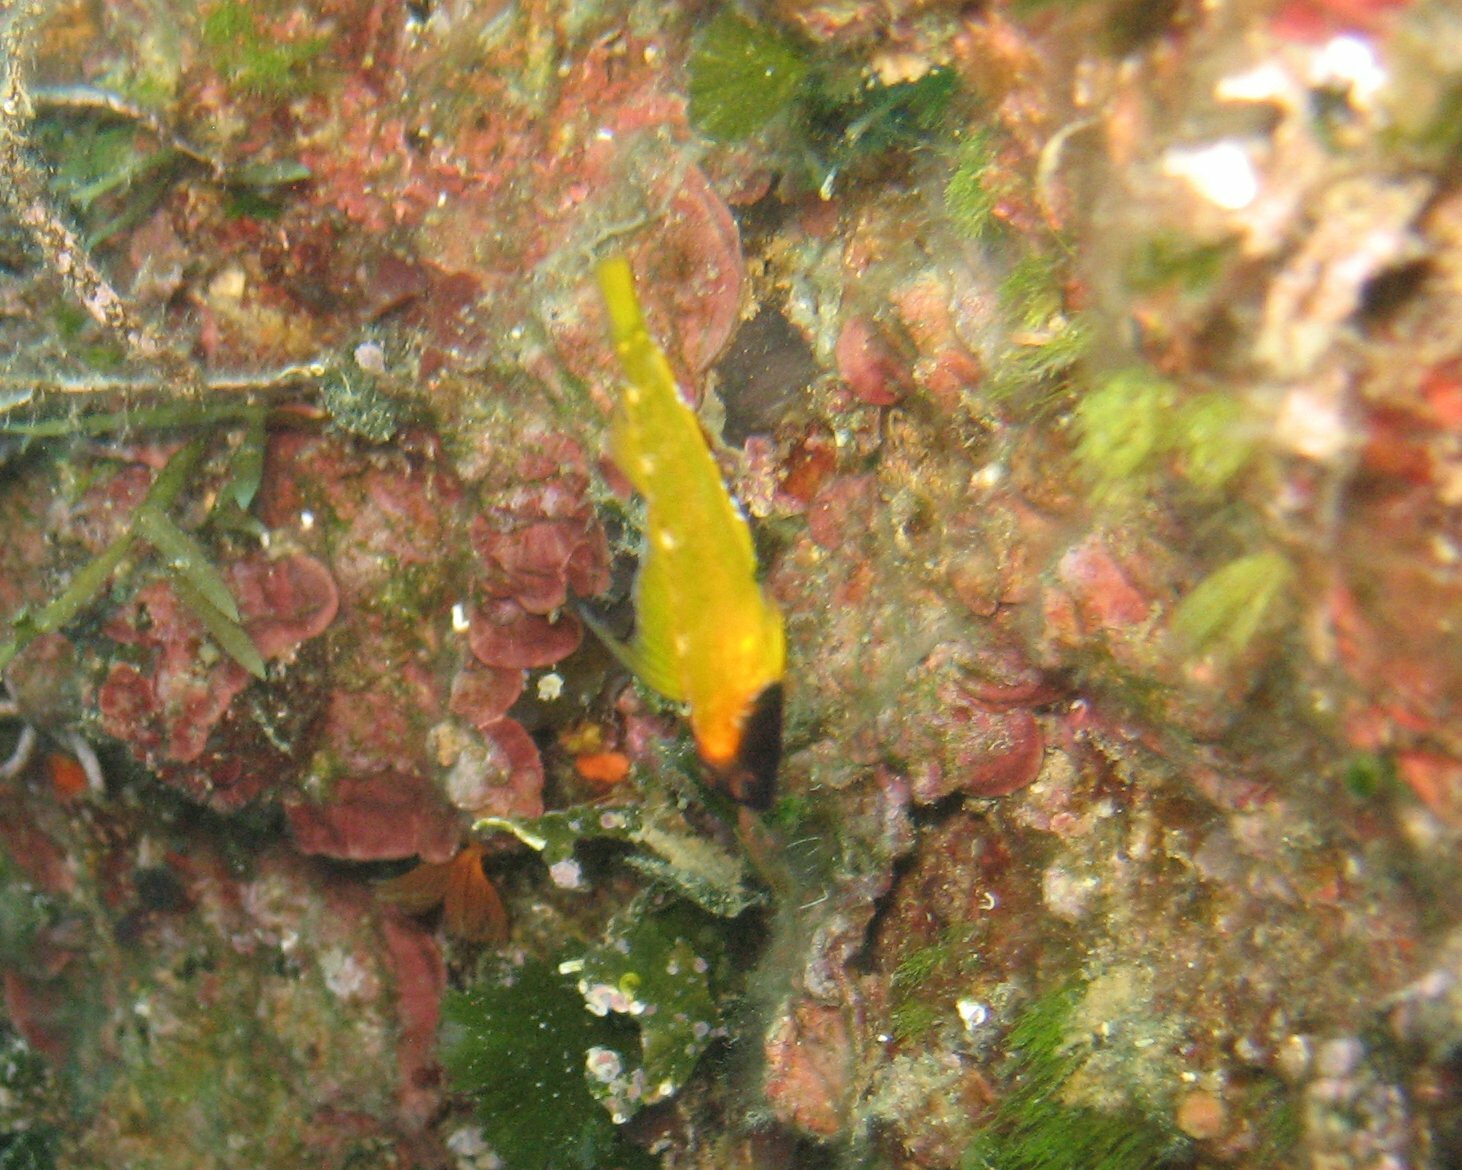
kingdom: Animalia
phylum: Chordata
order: Perciformes
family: Tripterygiidae
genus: Tripterygion
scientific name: Tripterygion delaisi
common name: Black-face blenny
